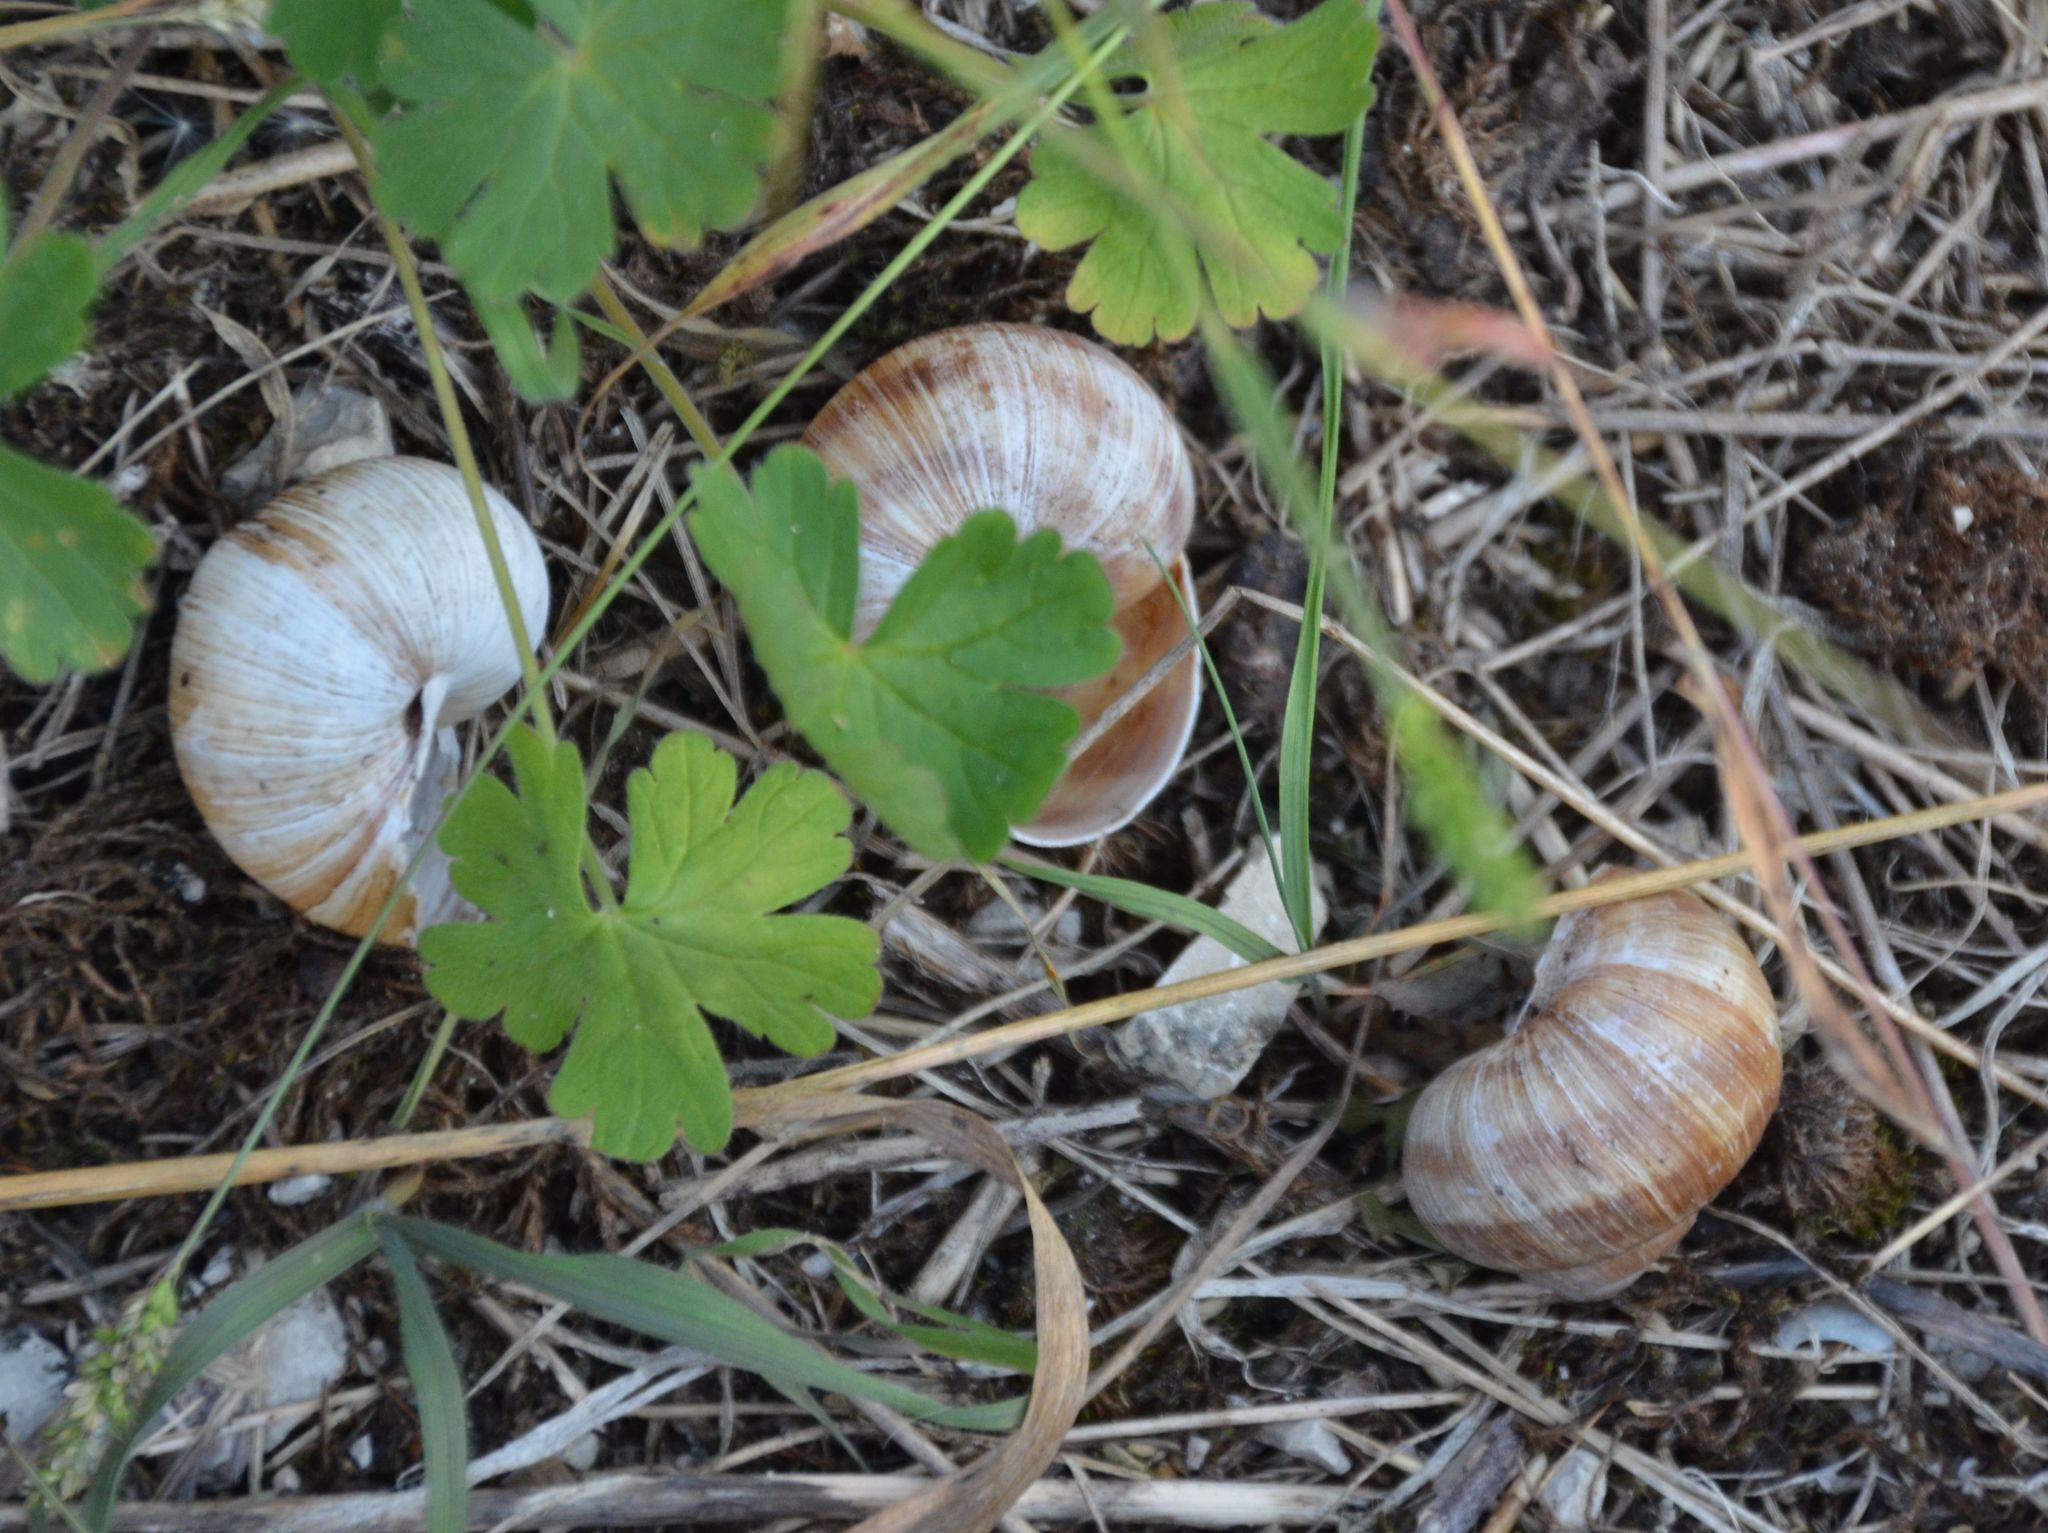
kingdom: Animalia
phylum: Mollusca
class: Gastropoda
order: Stylommatophora
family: Helicidae
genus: Helix
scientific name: Helix pomatia
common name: Roman snail
